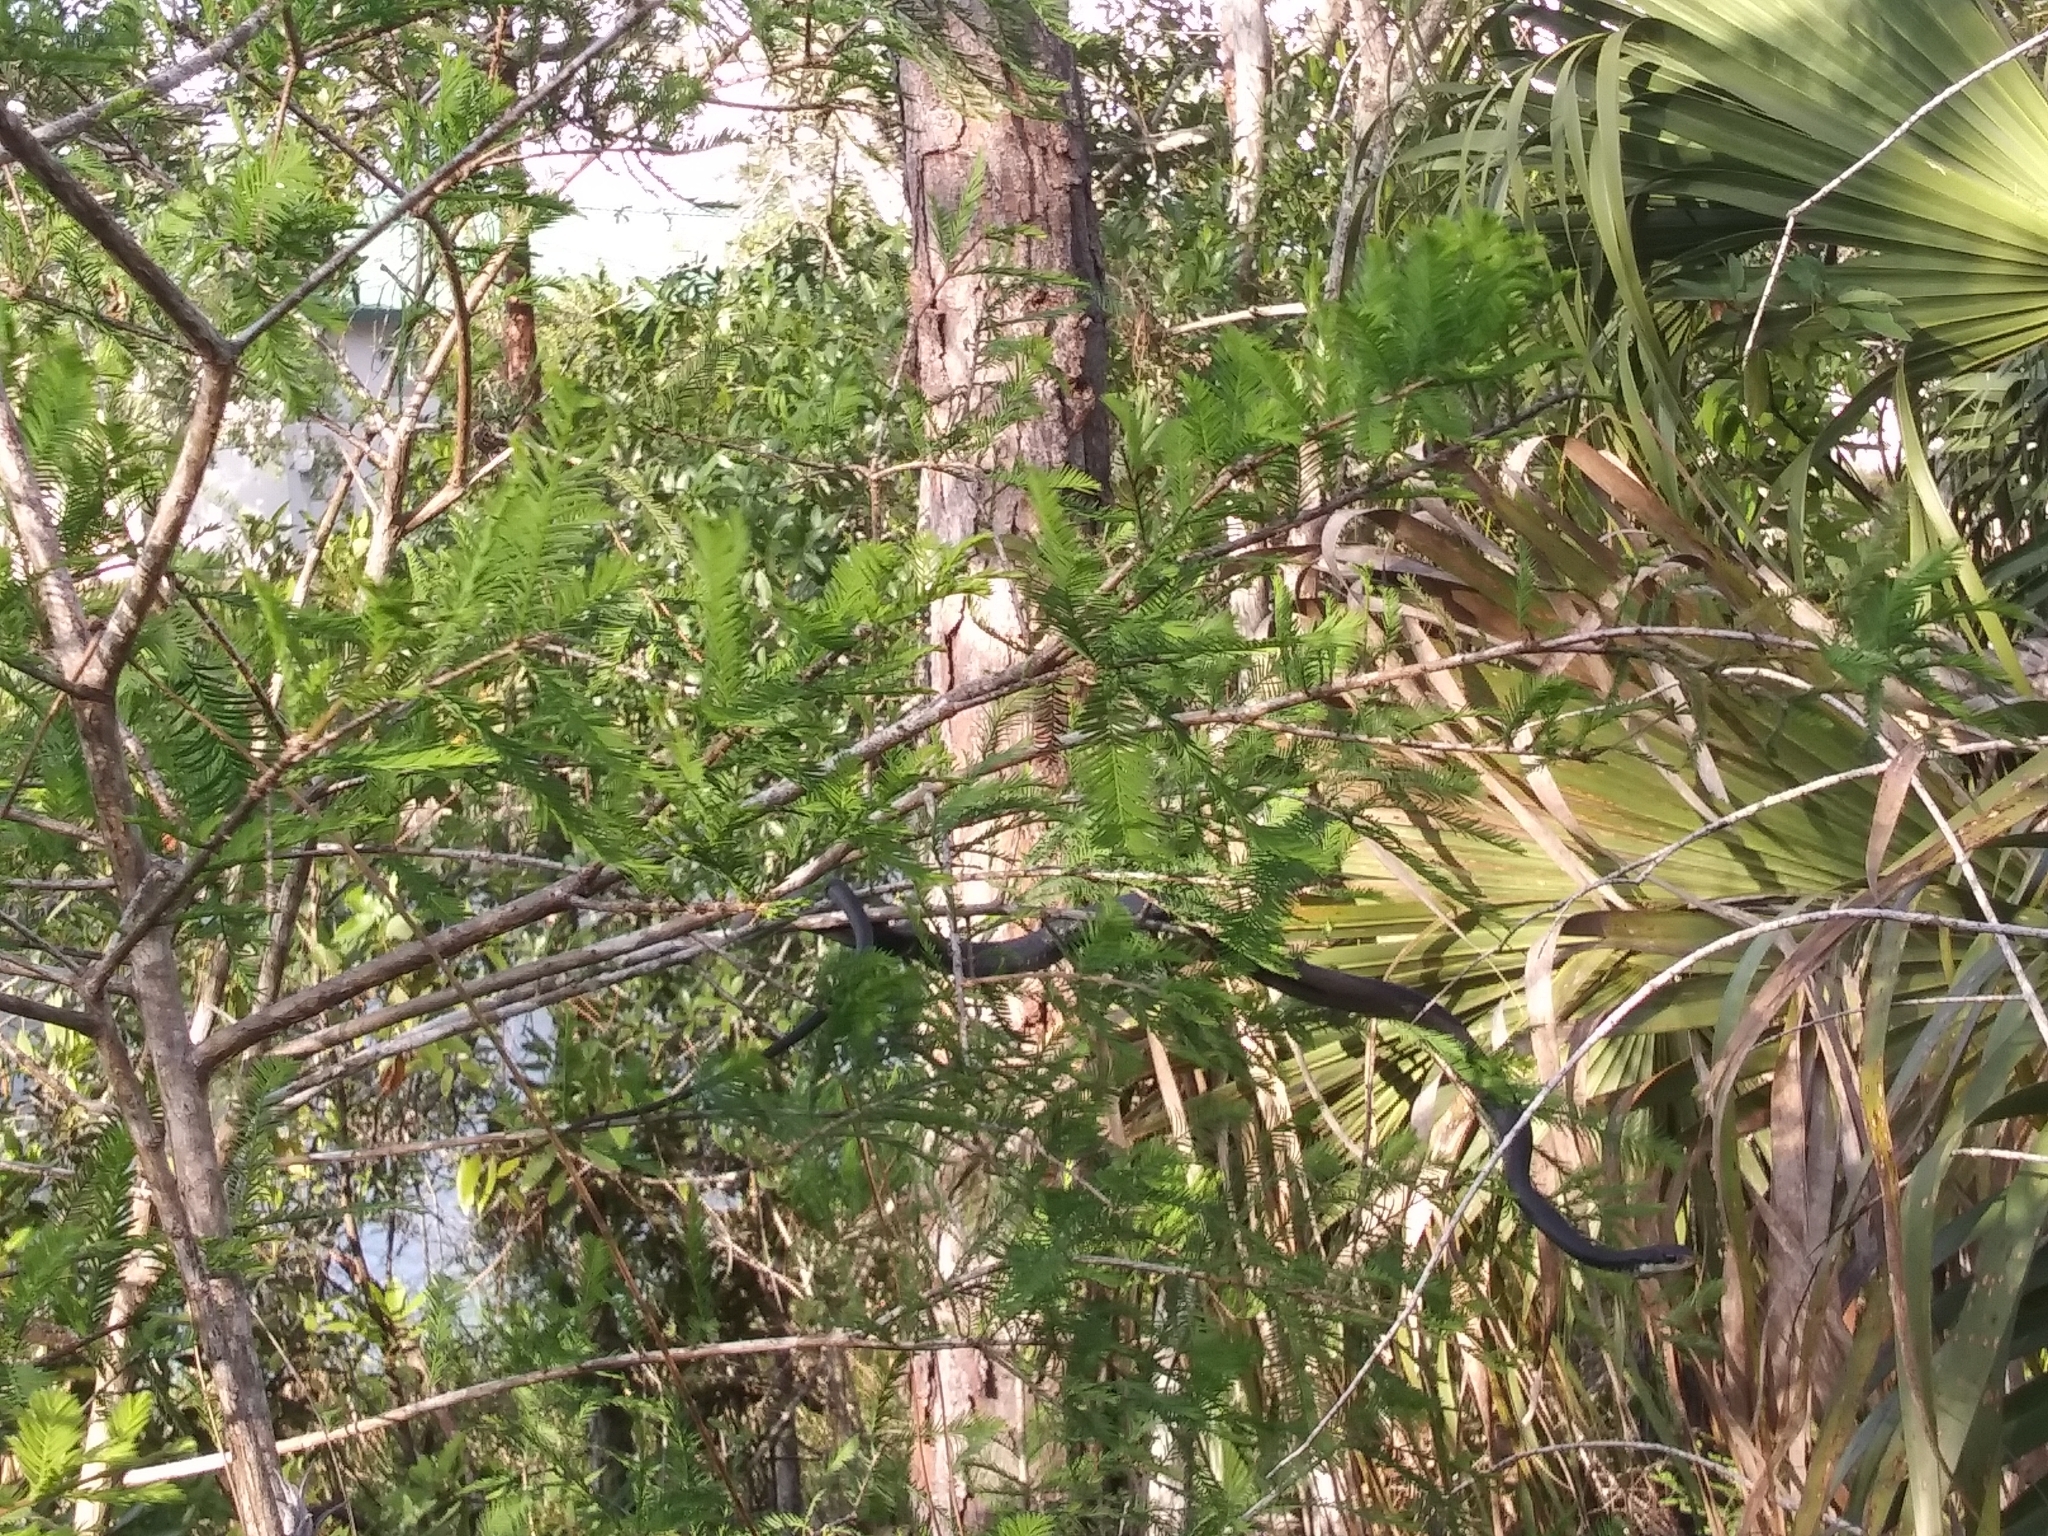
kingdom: Animalia
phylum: Chordata
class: Squamata
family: Colubridae
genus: Coluber
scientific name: Coluber constrictor
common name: Eastern racer
